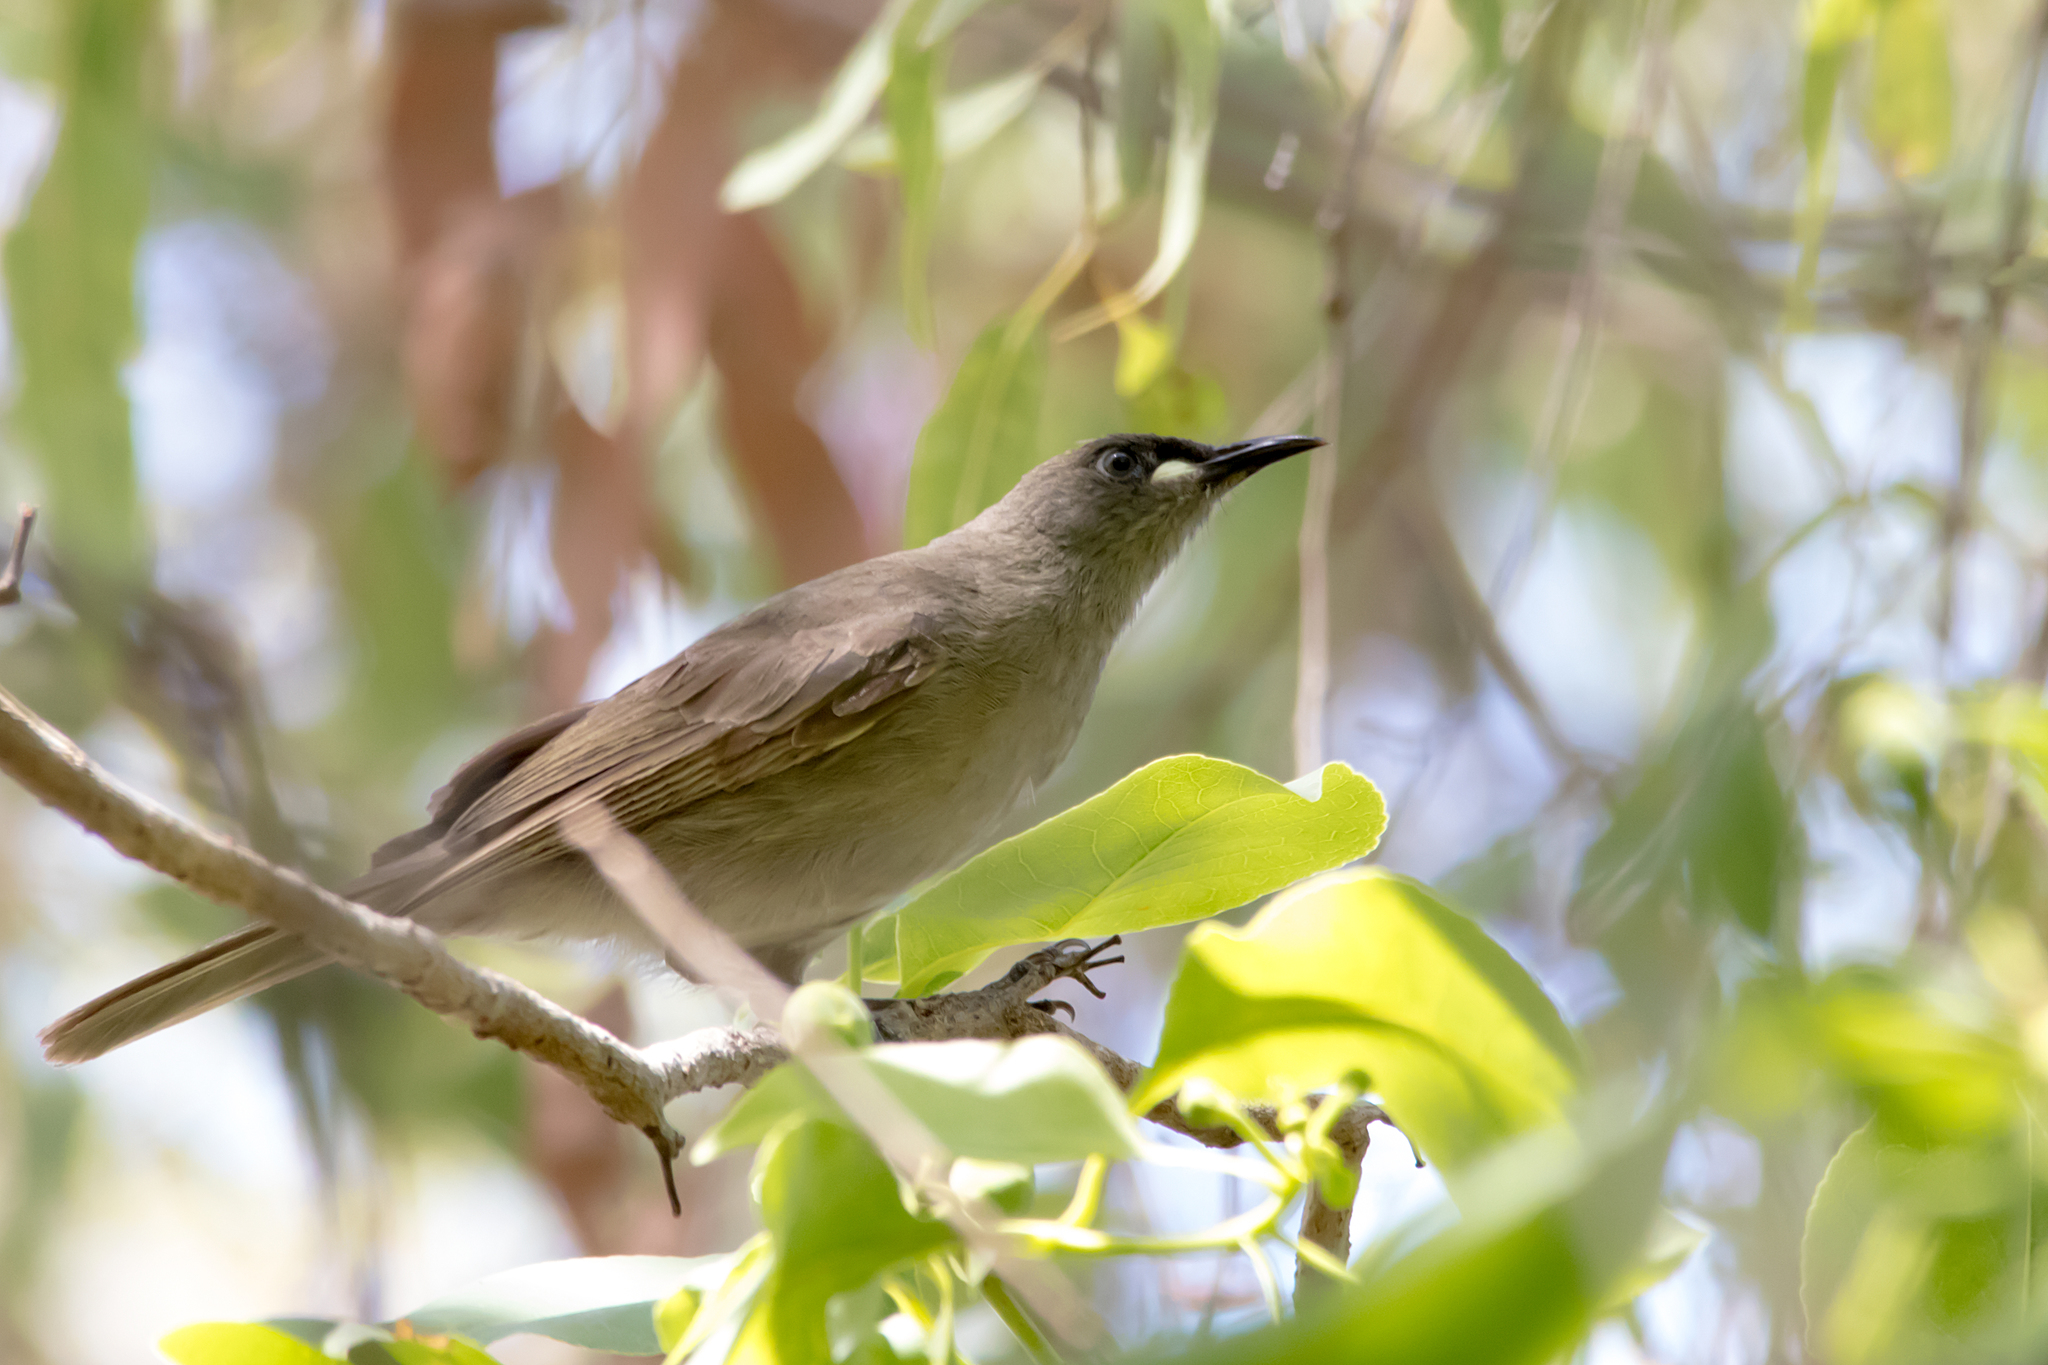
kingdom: Animalia
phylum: Chordata
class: Aves
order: Passeriformes
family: Meliphagidae
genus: Stomiopera
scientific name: Stomiopera unicolor
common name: White-gaped honeyeater
